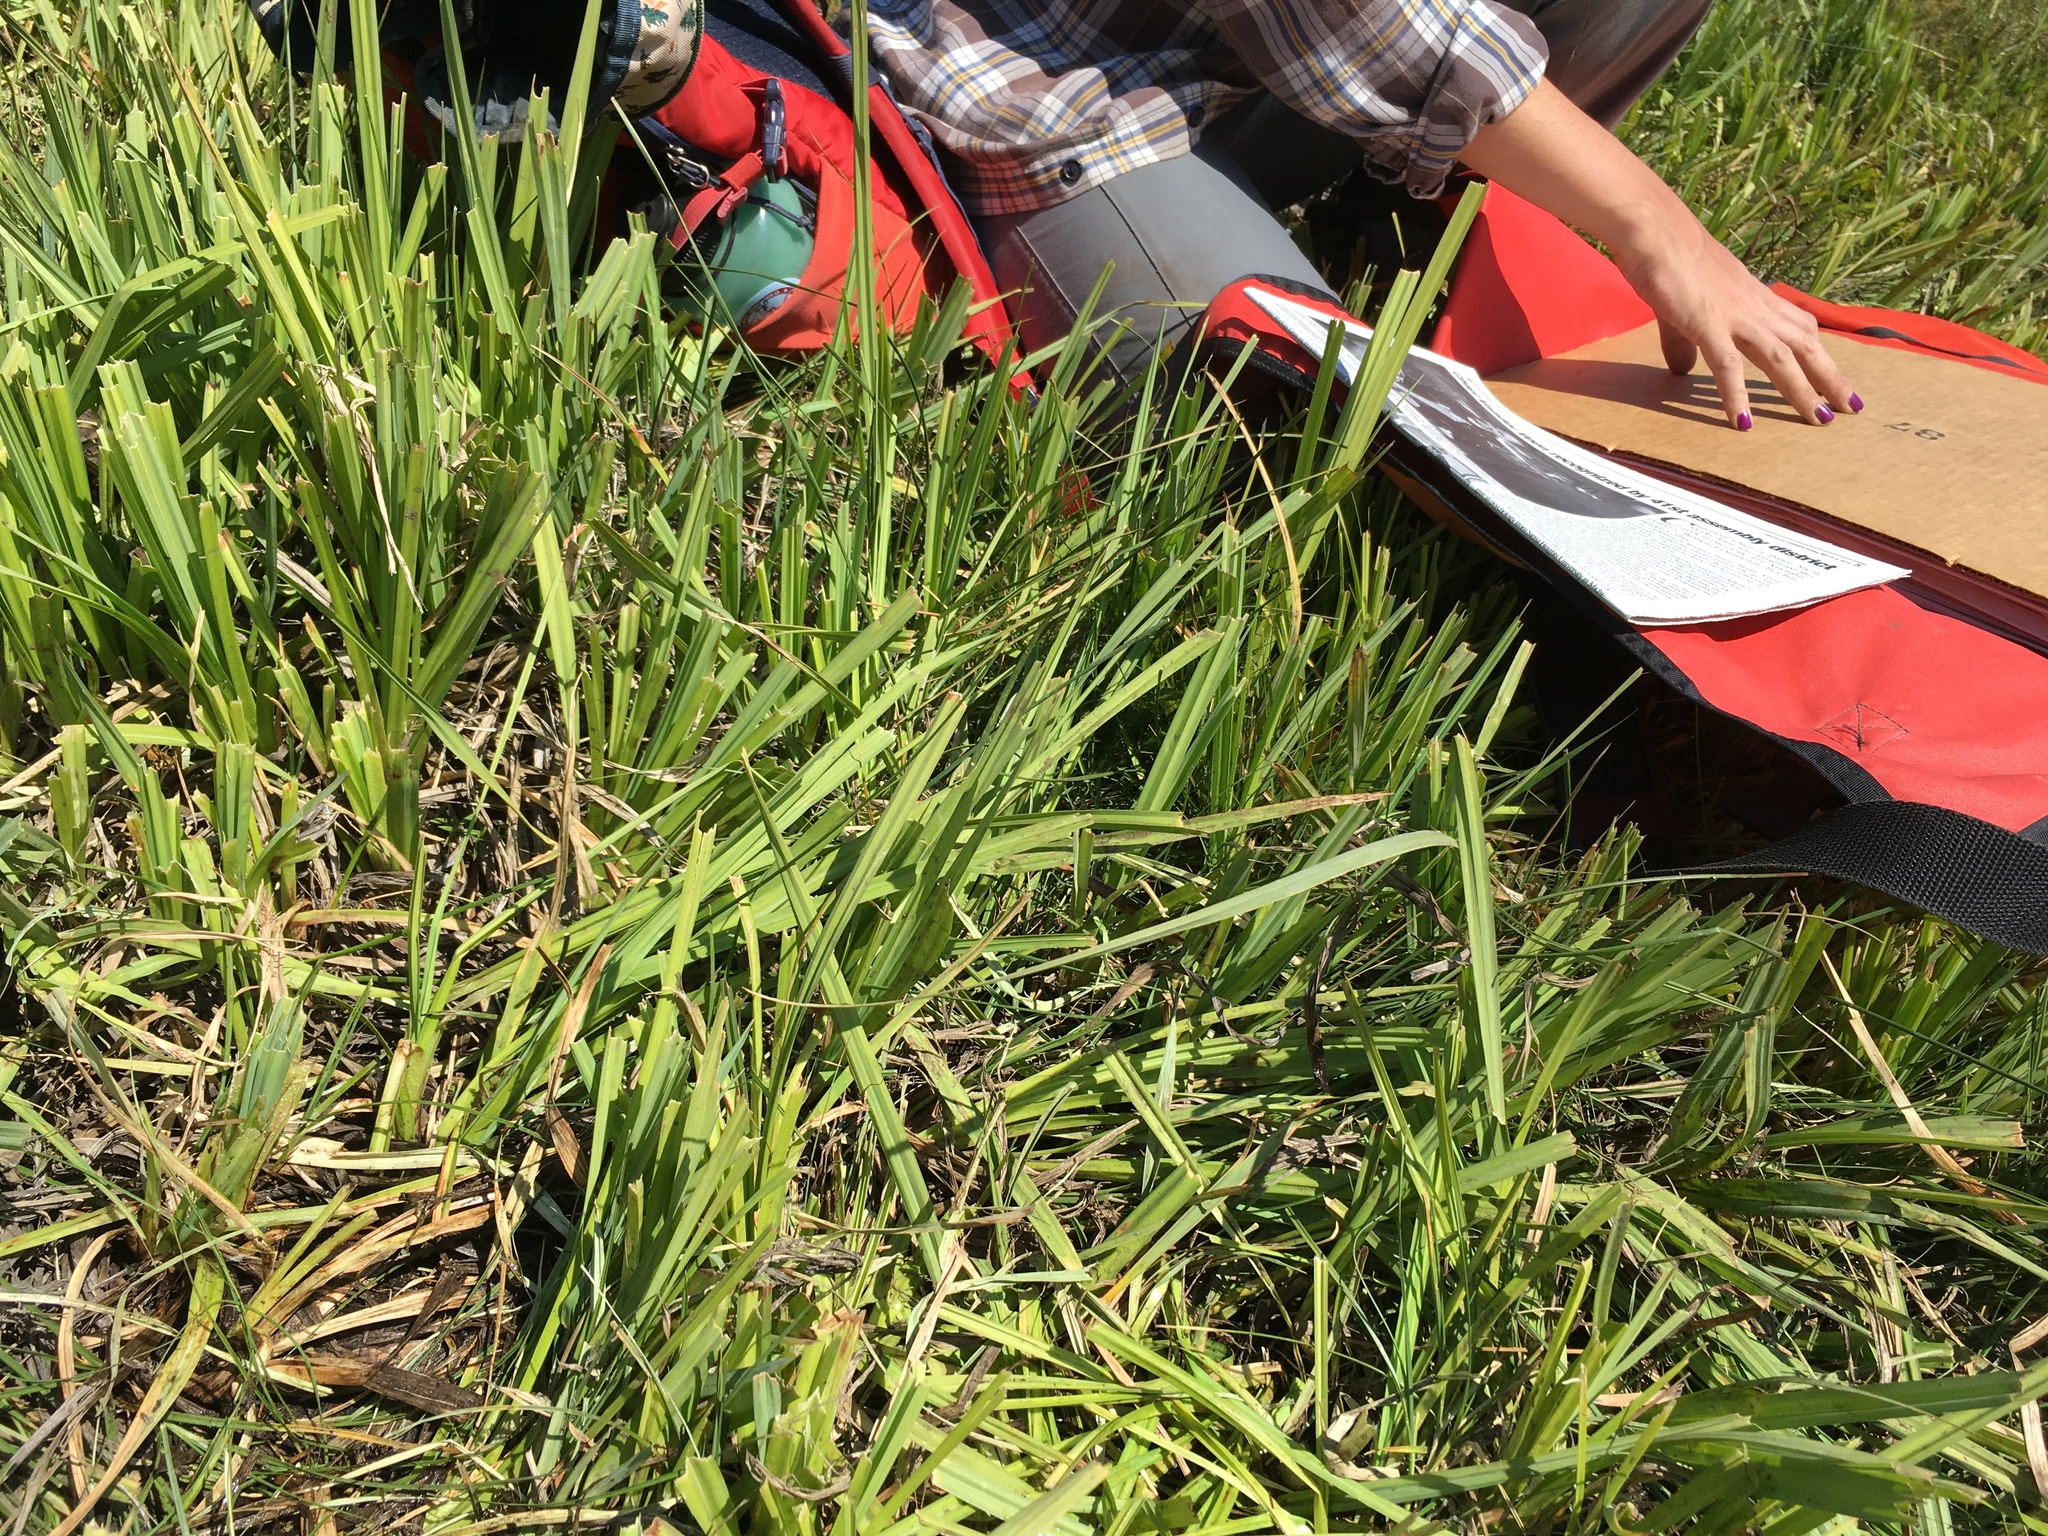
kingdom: Plantae
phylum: Tracheophyta
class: Liliopsida
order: Poales
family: Cyperaceae
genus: Carex
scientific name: Carex nebrascensis
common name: Nebraska sedge
